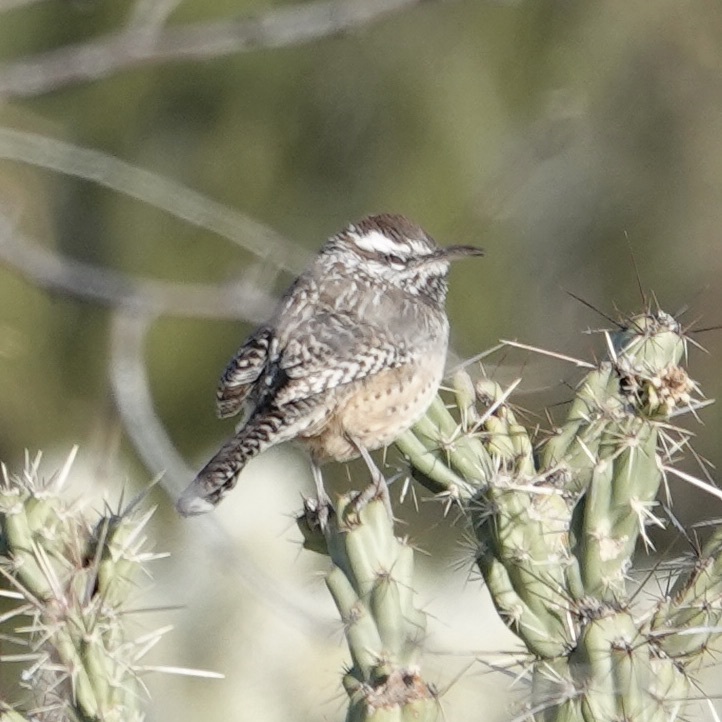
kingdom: Animalia
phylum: Chordata
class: Aves
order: Passeriformes
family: Troglodytidae
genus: Campylorhynchus
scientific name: Campylorhynchus brunneicapillus
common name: Cactus wren
